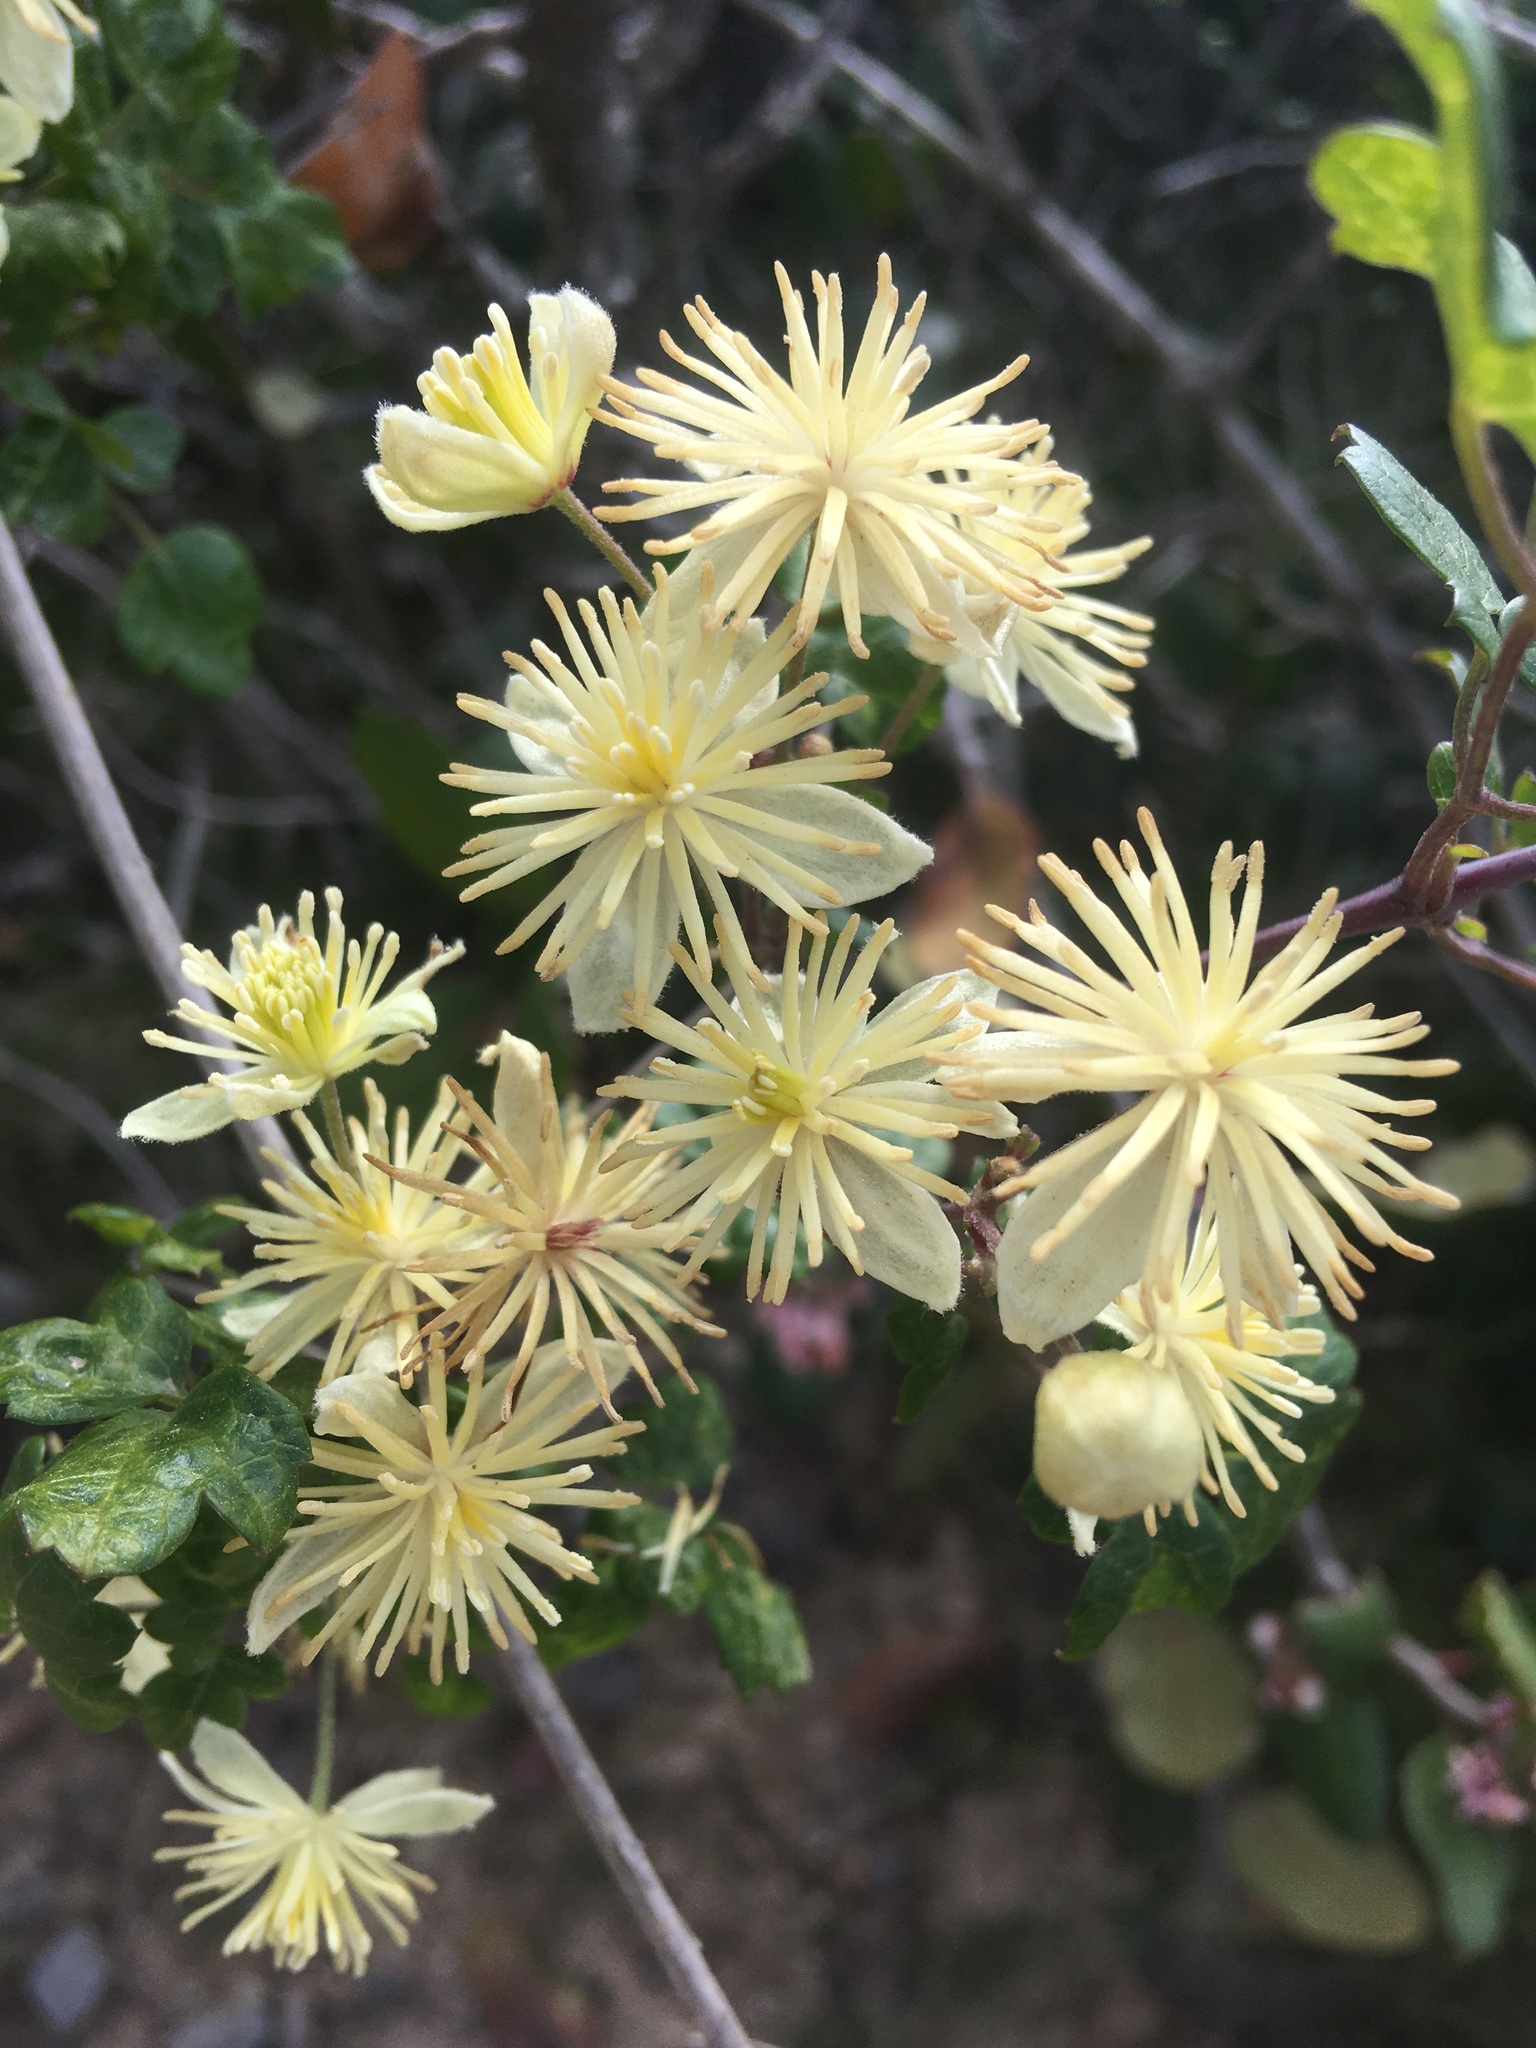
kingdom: Plantae
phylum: Tracheophyta
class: Magnoliopsida
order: Ranunculales
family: Ranunculaceae
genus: Clematis
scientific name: Clematis pauciflora
